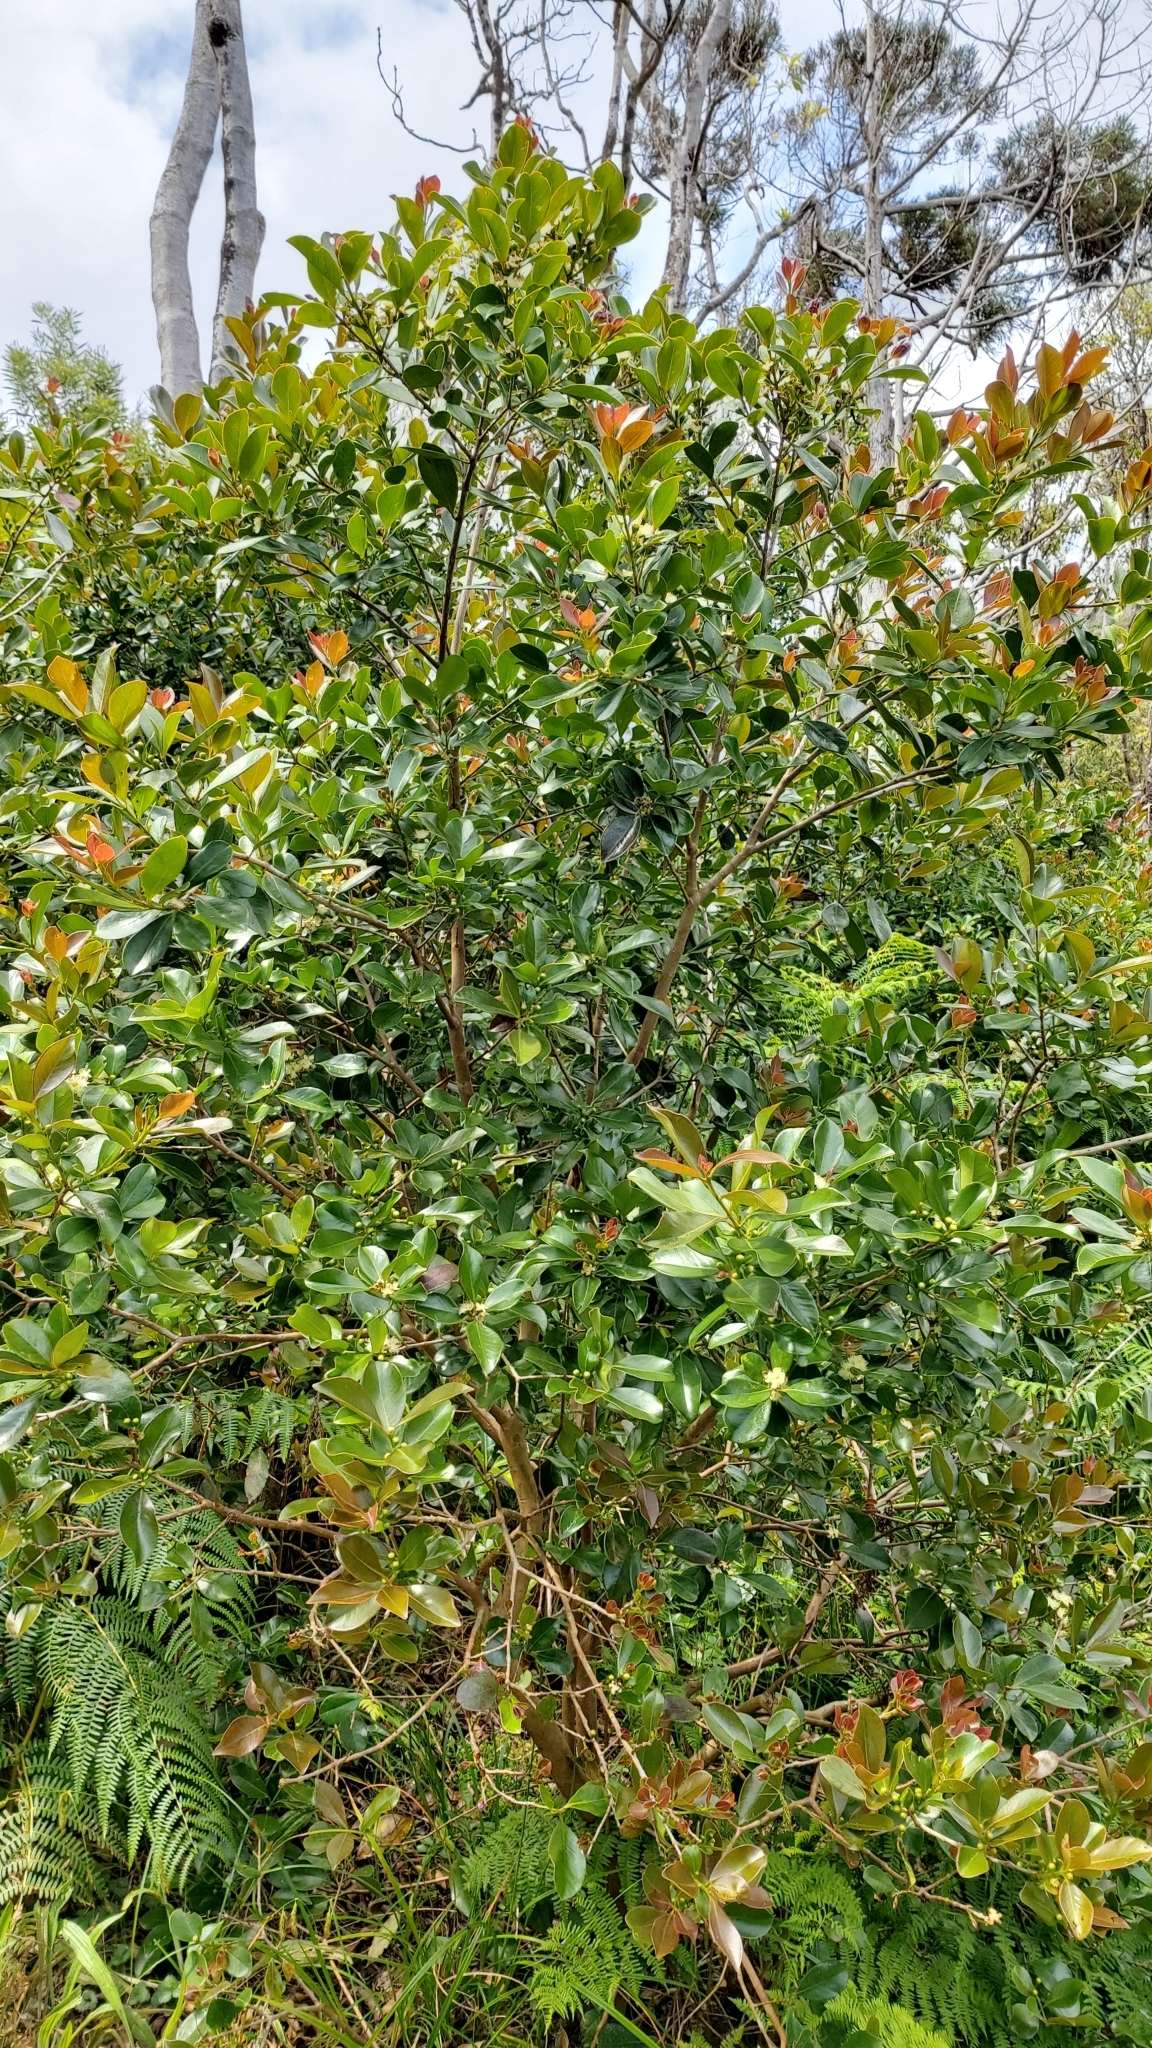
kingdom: Plantae
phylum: Tracheophyta
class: Magnoliopsida
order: Myrtales
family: Myrtaceae
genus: Psidium
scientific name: Psidium cattleianum
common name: Strawberry guava
